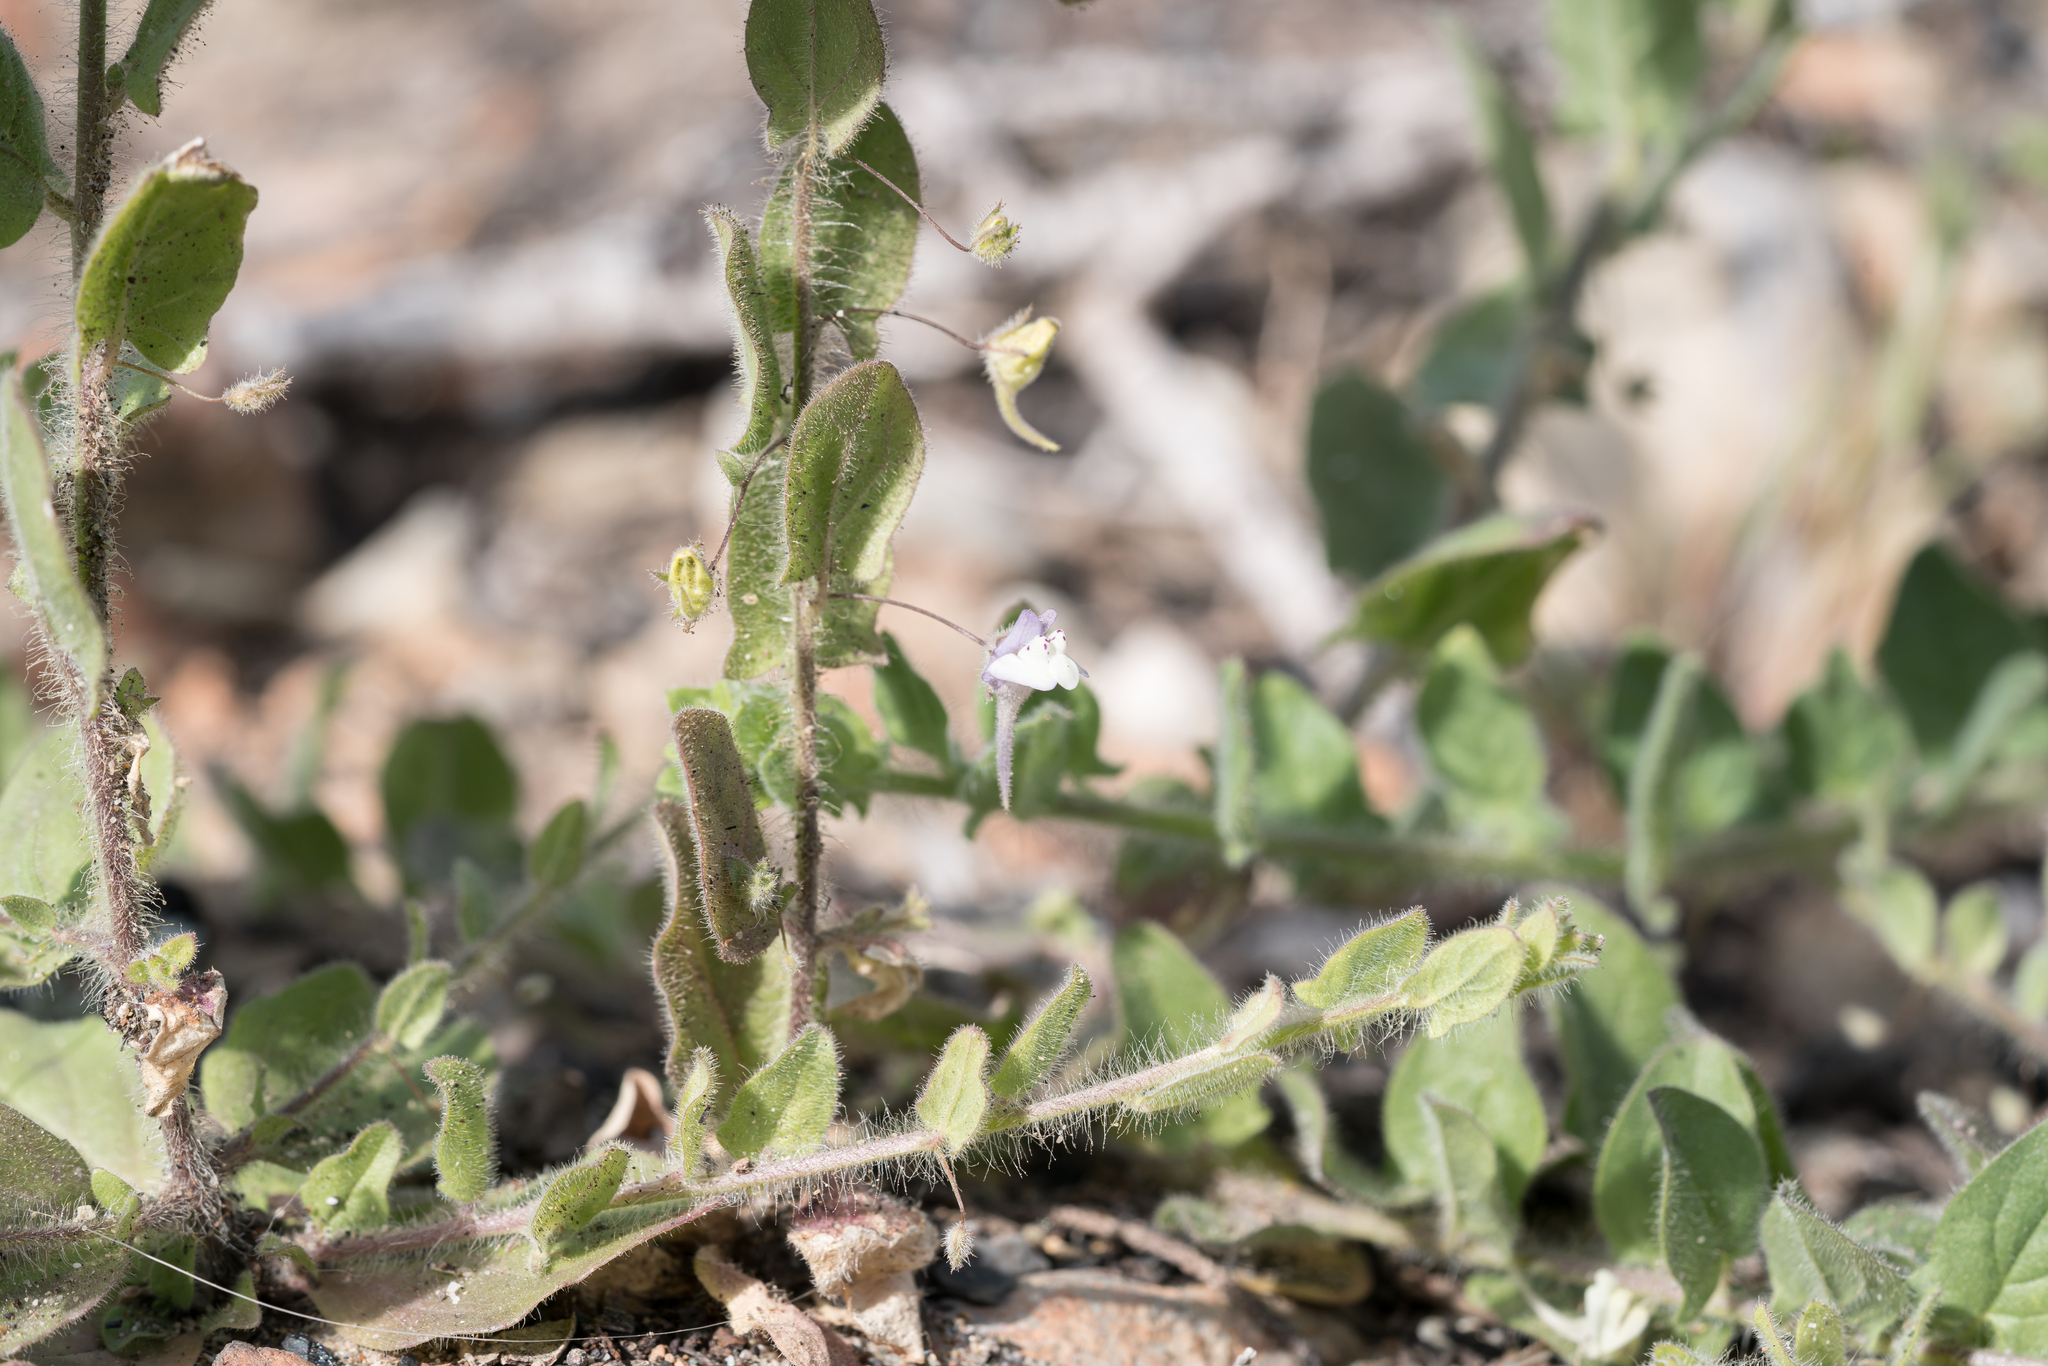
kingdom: Plantae
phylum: Tracheophyta
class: Magnoliopsida
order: Lamiales
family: Plantaginaceae
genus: Kickxia
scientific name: Kickxia commutata
